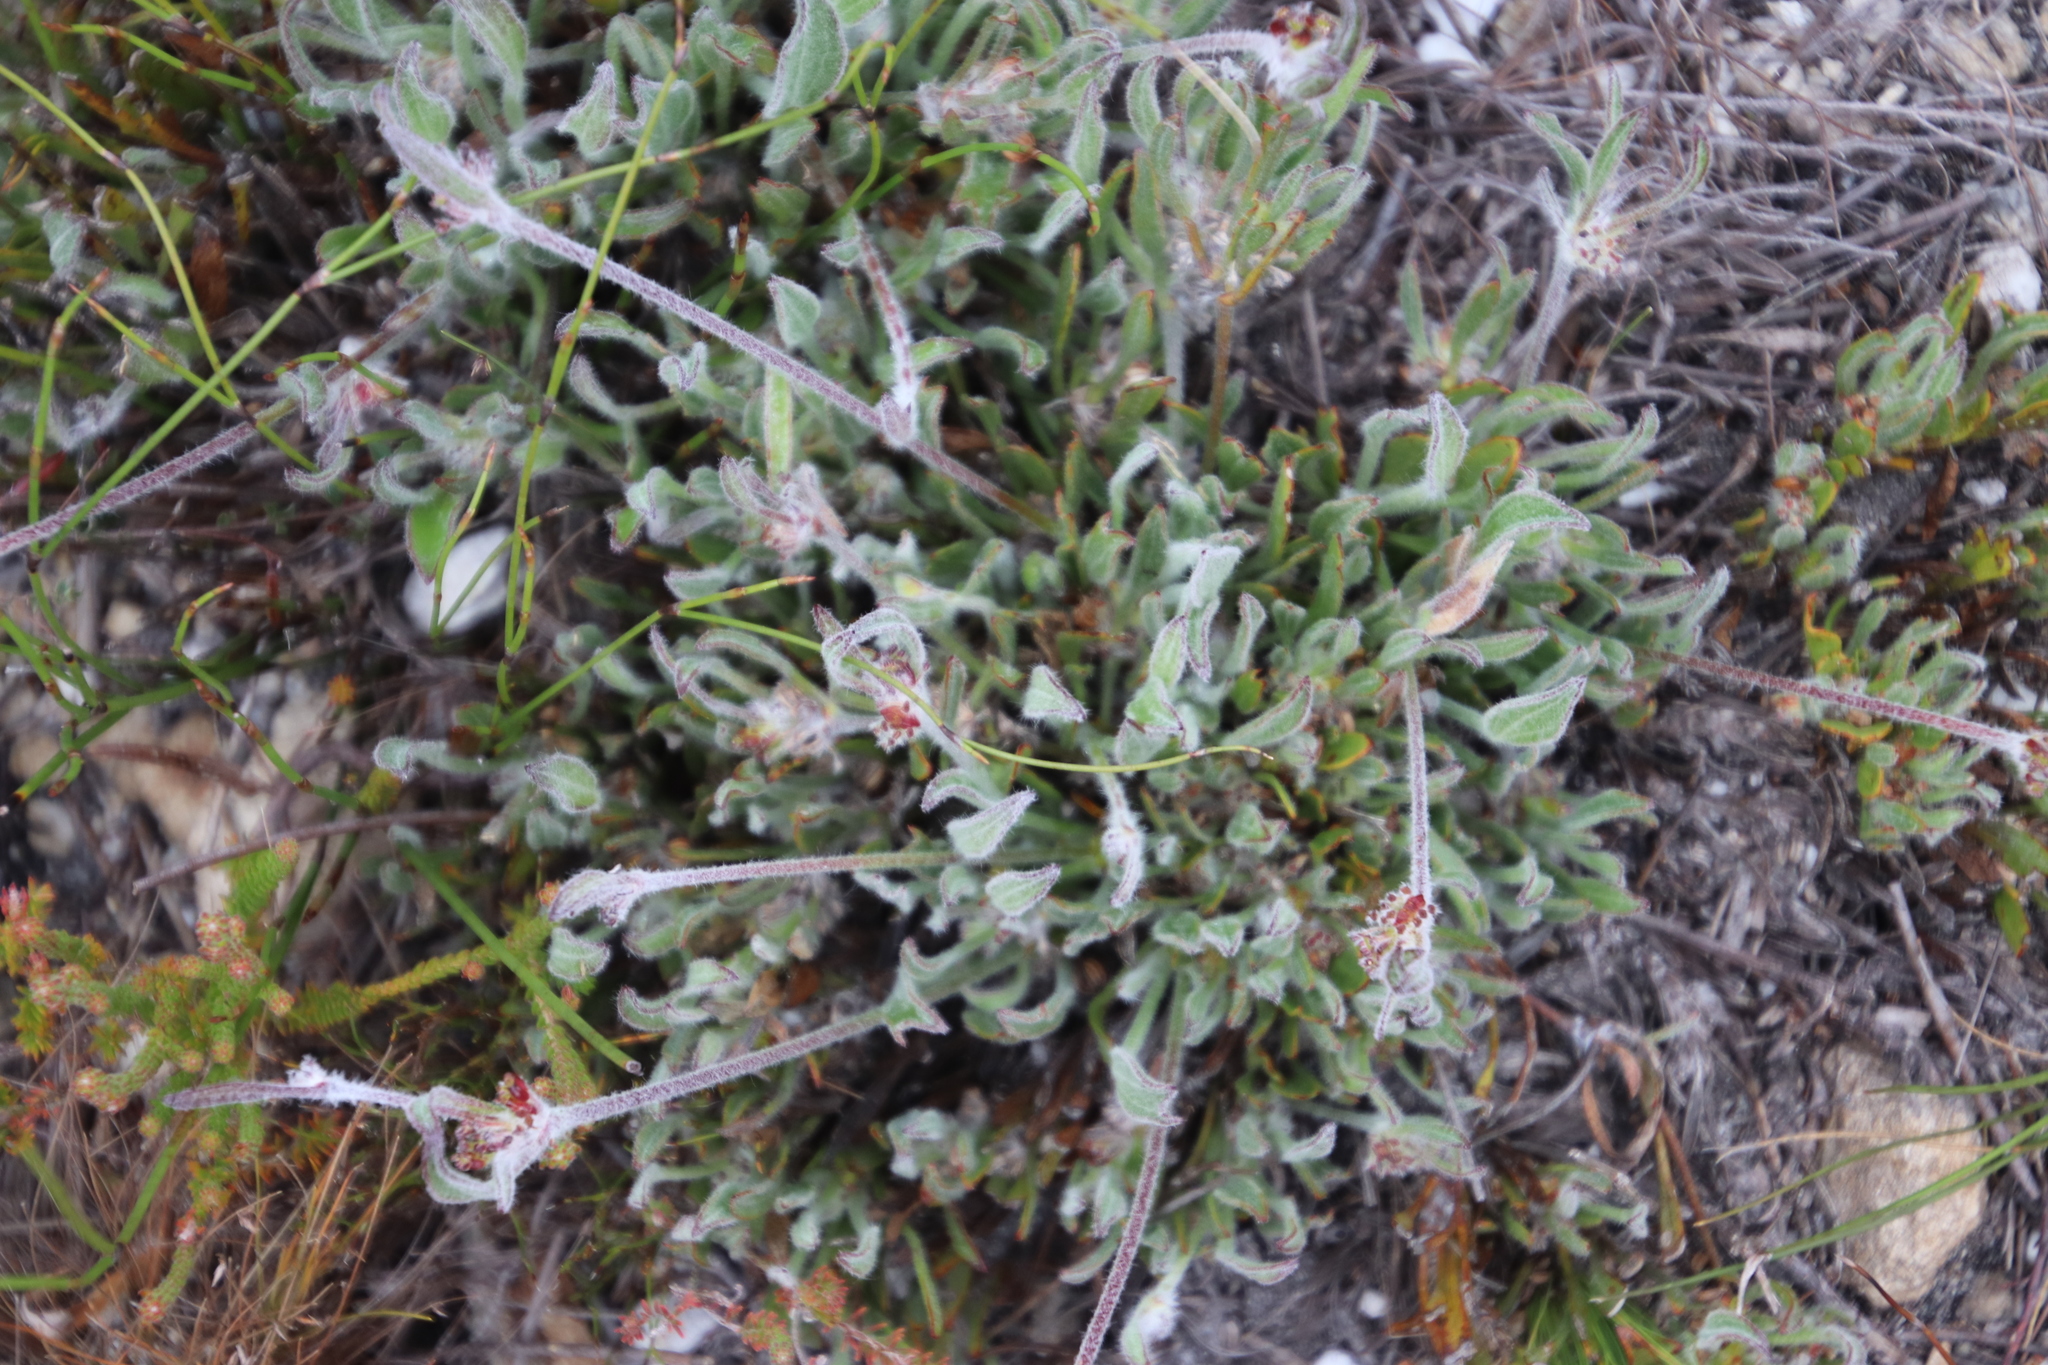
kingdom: Plantae
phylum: Tracheophyta
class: Magnoliopsida
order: Apiales
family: Apiaceae
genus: Centella
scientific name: Centella difformis
